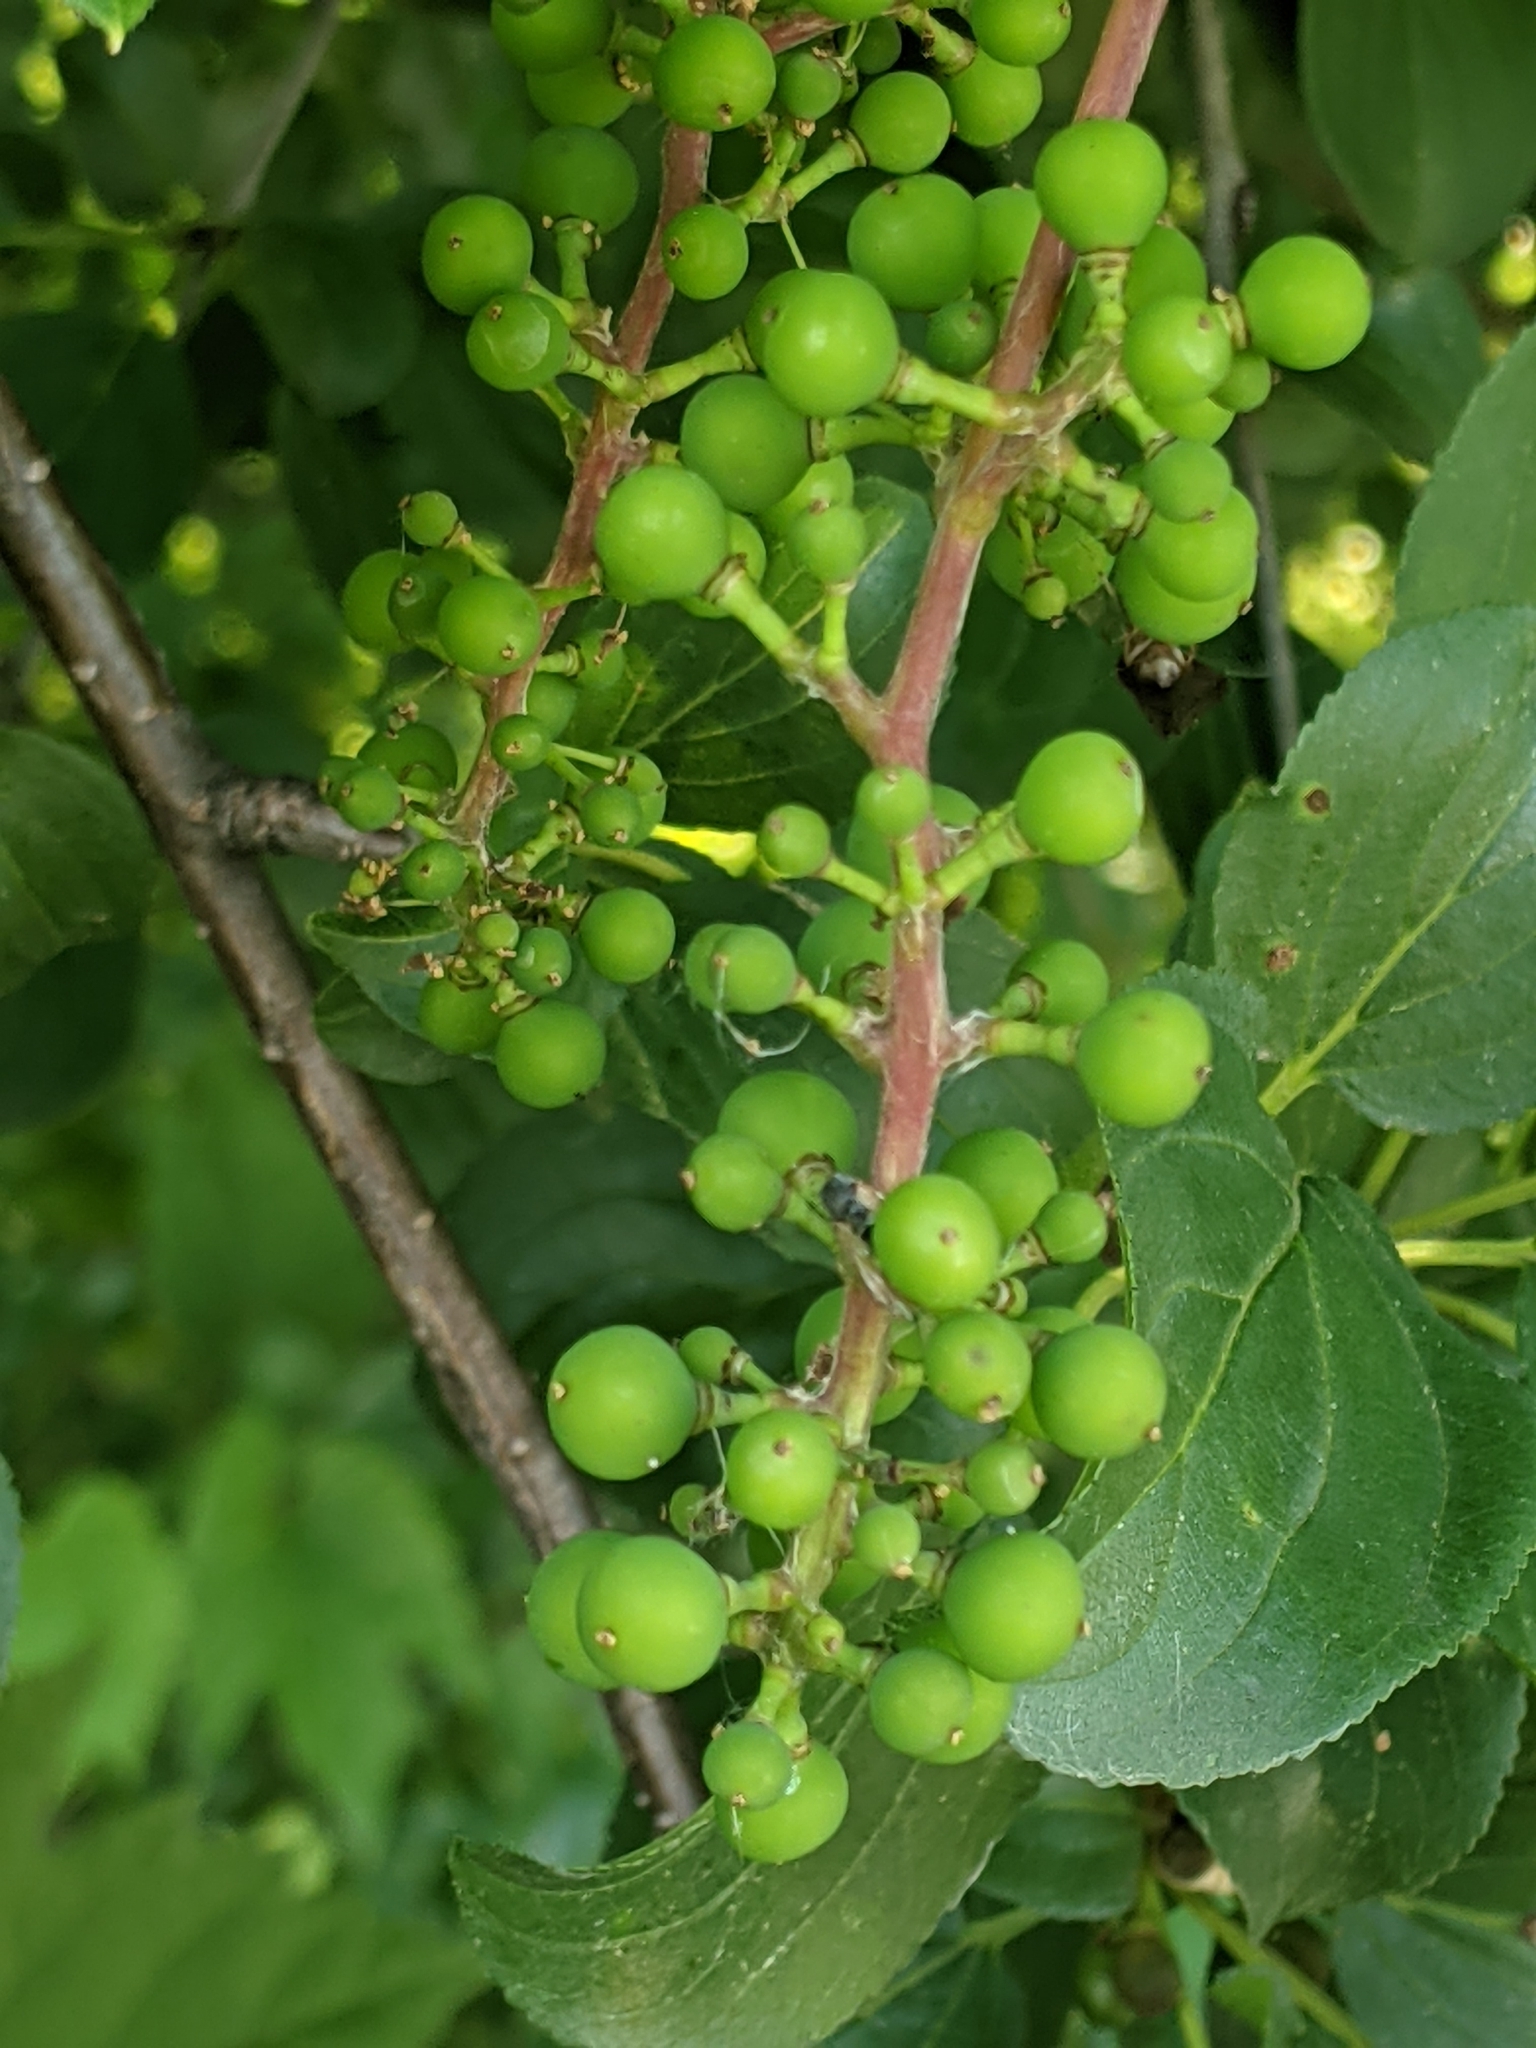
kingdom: Plantae
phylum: Tracheophyta
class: Magnoliopsida
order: Vitales
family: Vitaceae
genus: Vitis
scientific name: Vitis riparia
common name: Frost grape
